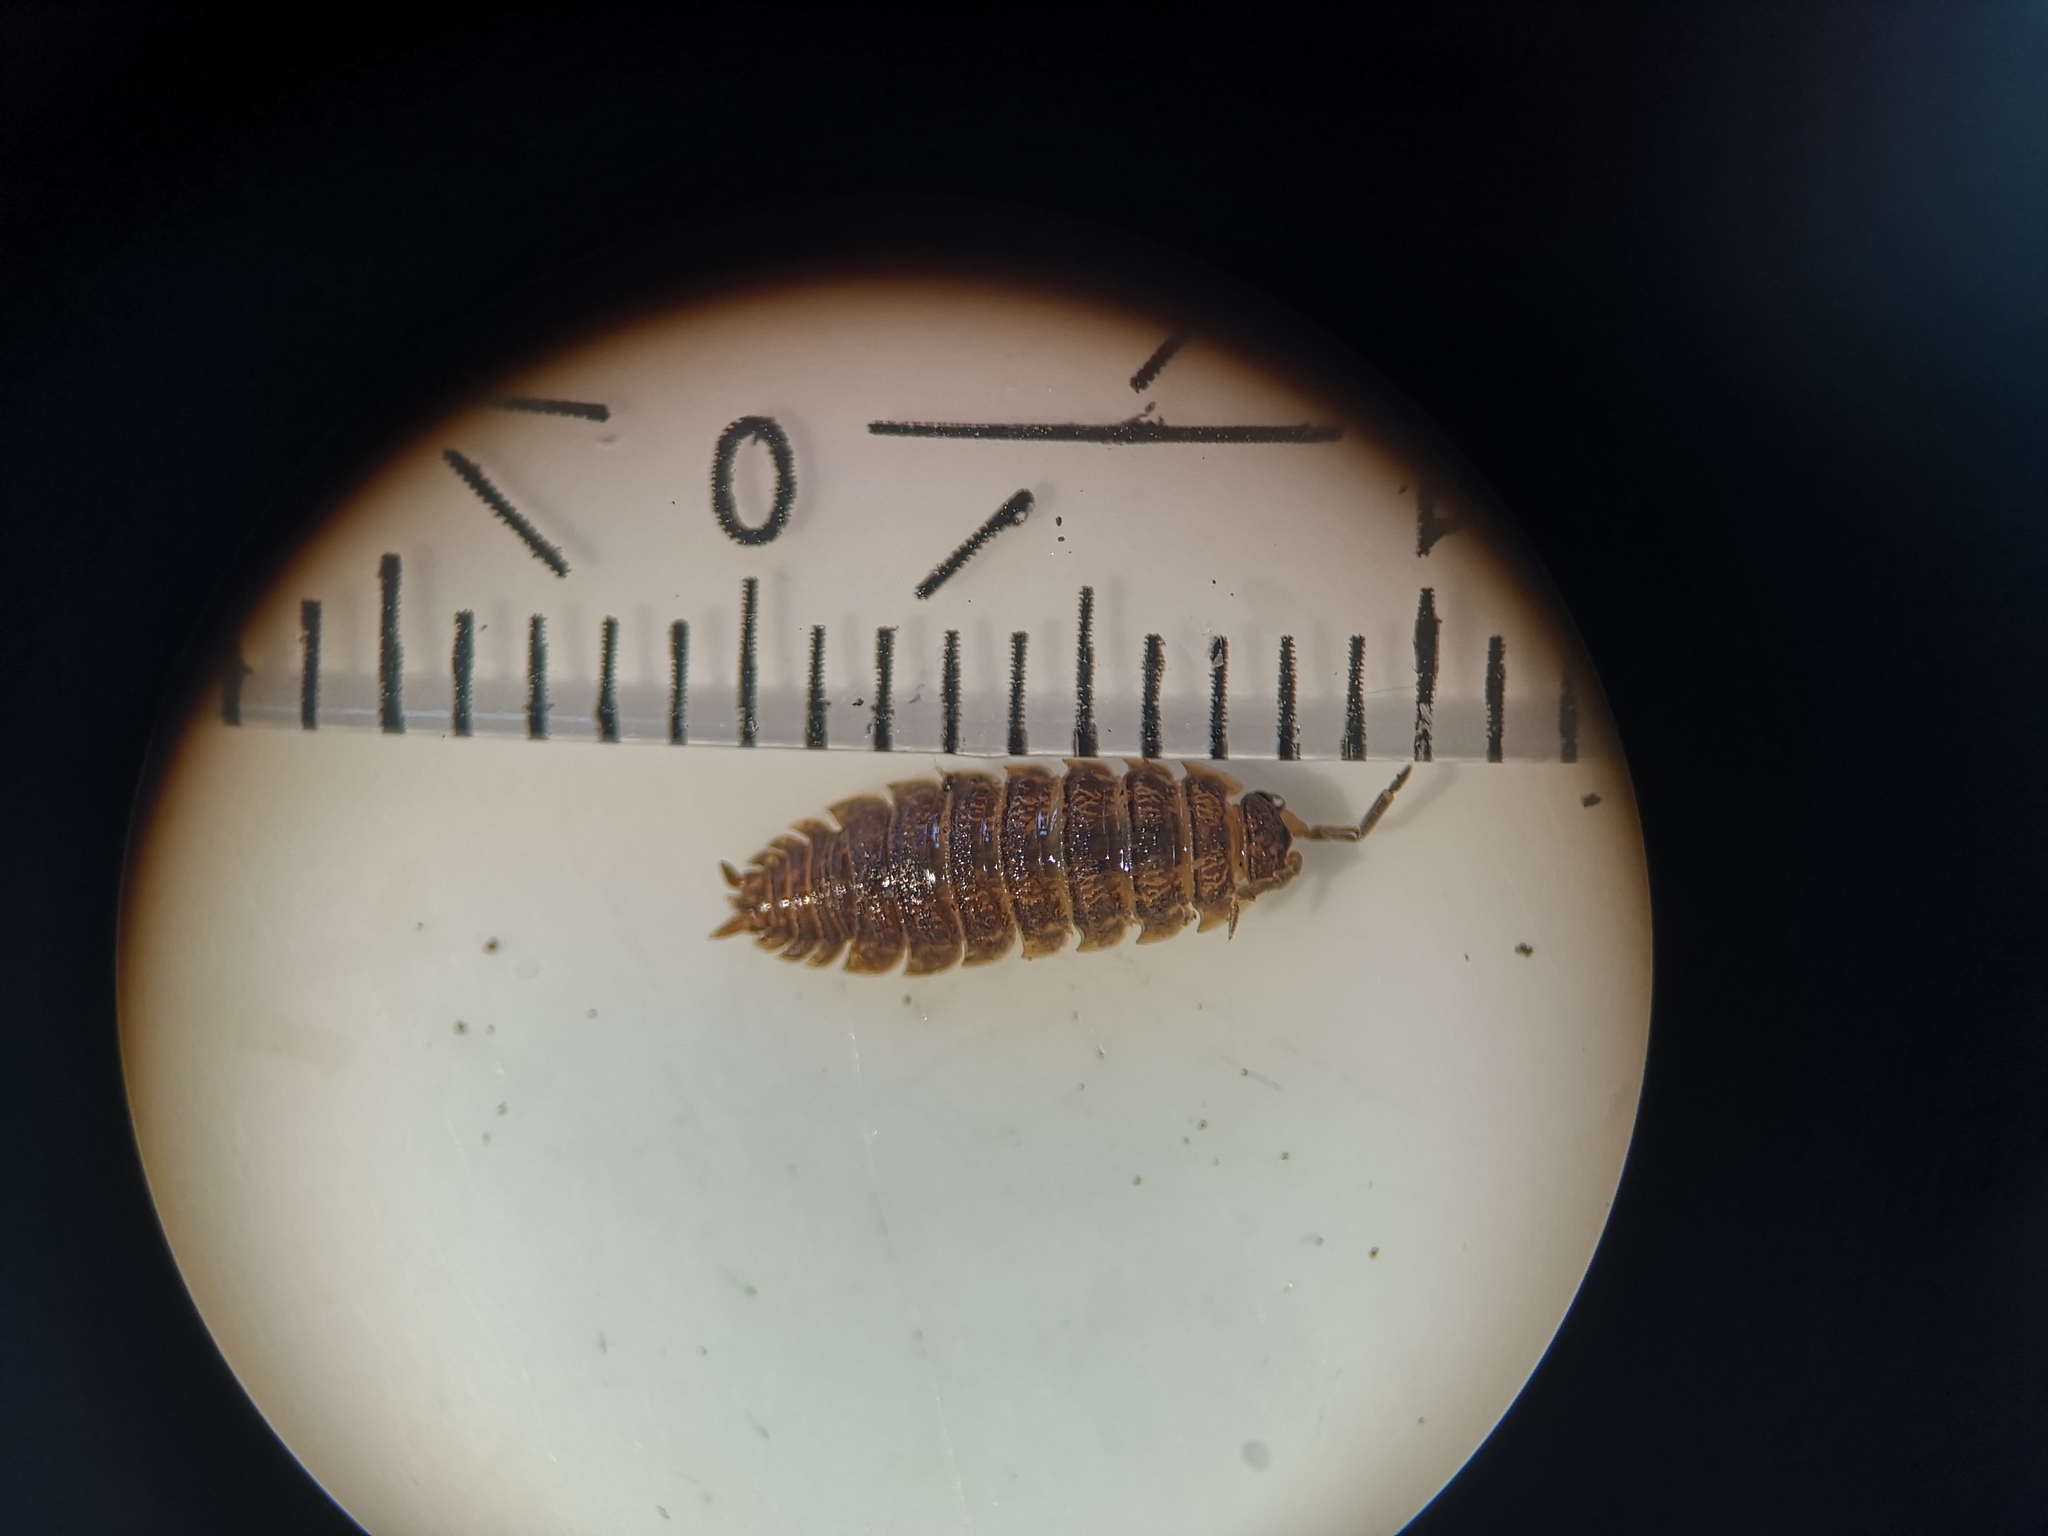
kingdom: Animalia
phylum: Arthropoda
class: Malacostraca
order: Isopoda
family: Porcellionidae
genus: Porcellio
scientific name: Porcellio scaber
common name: Common rough woodlouse
